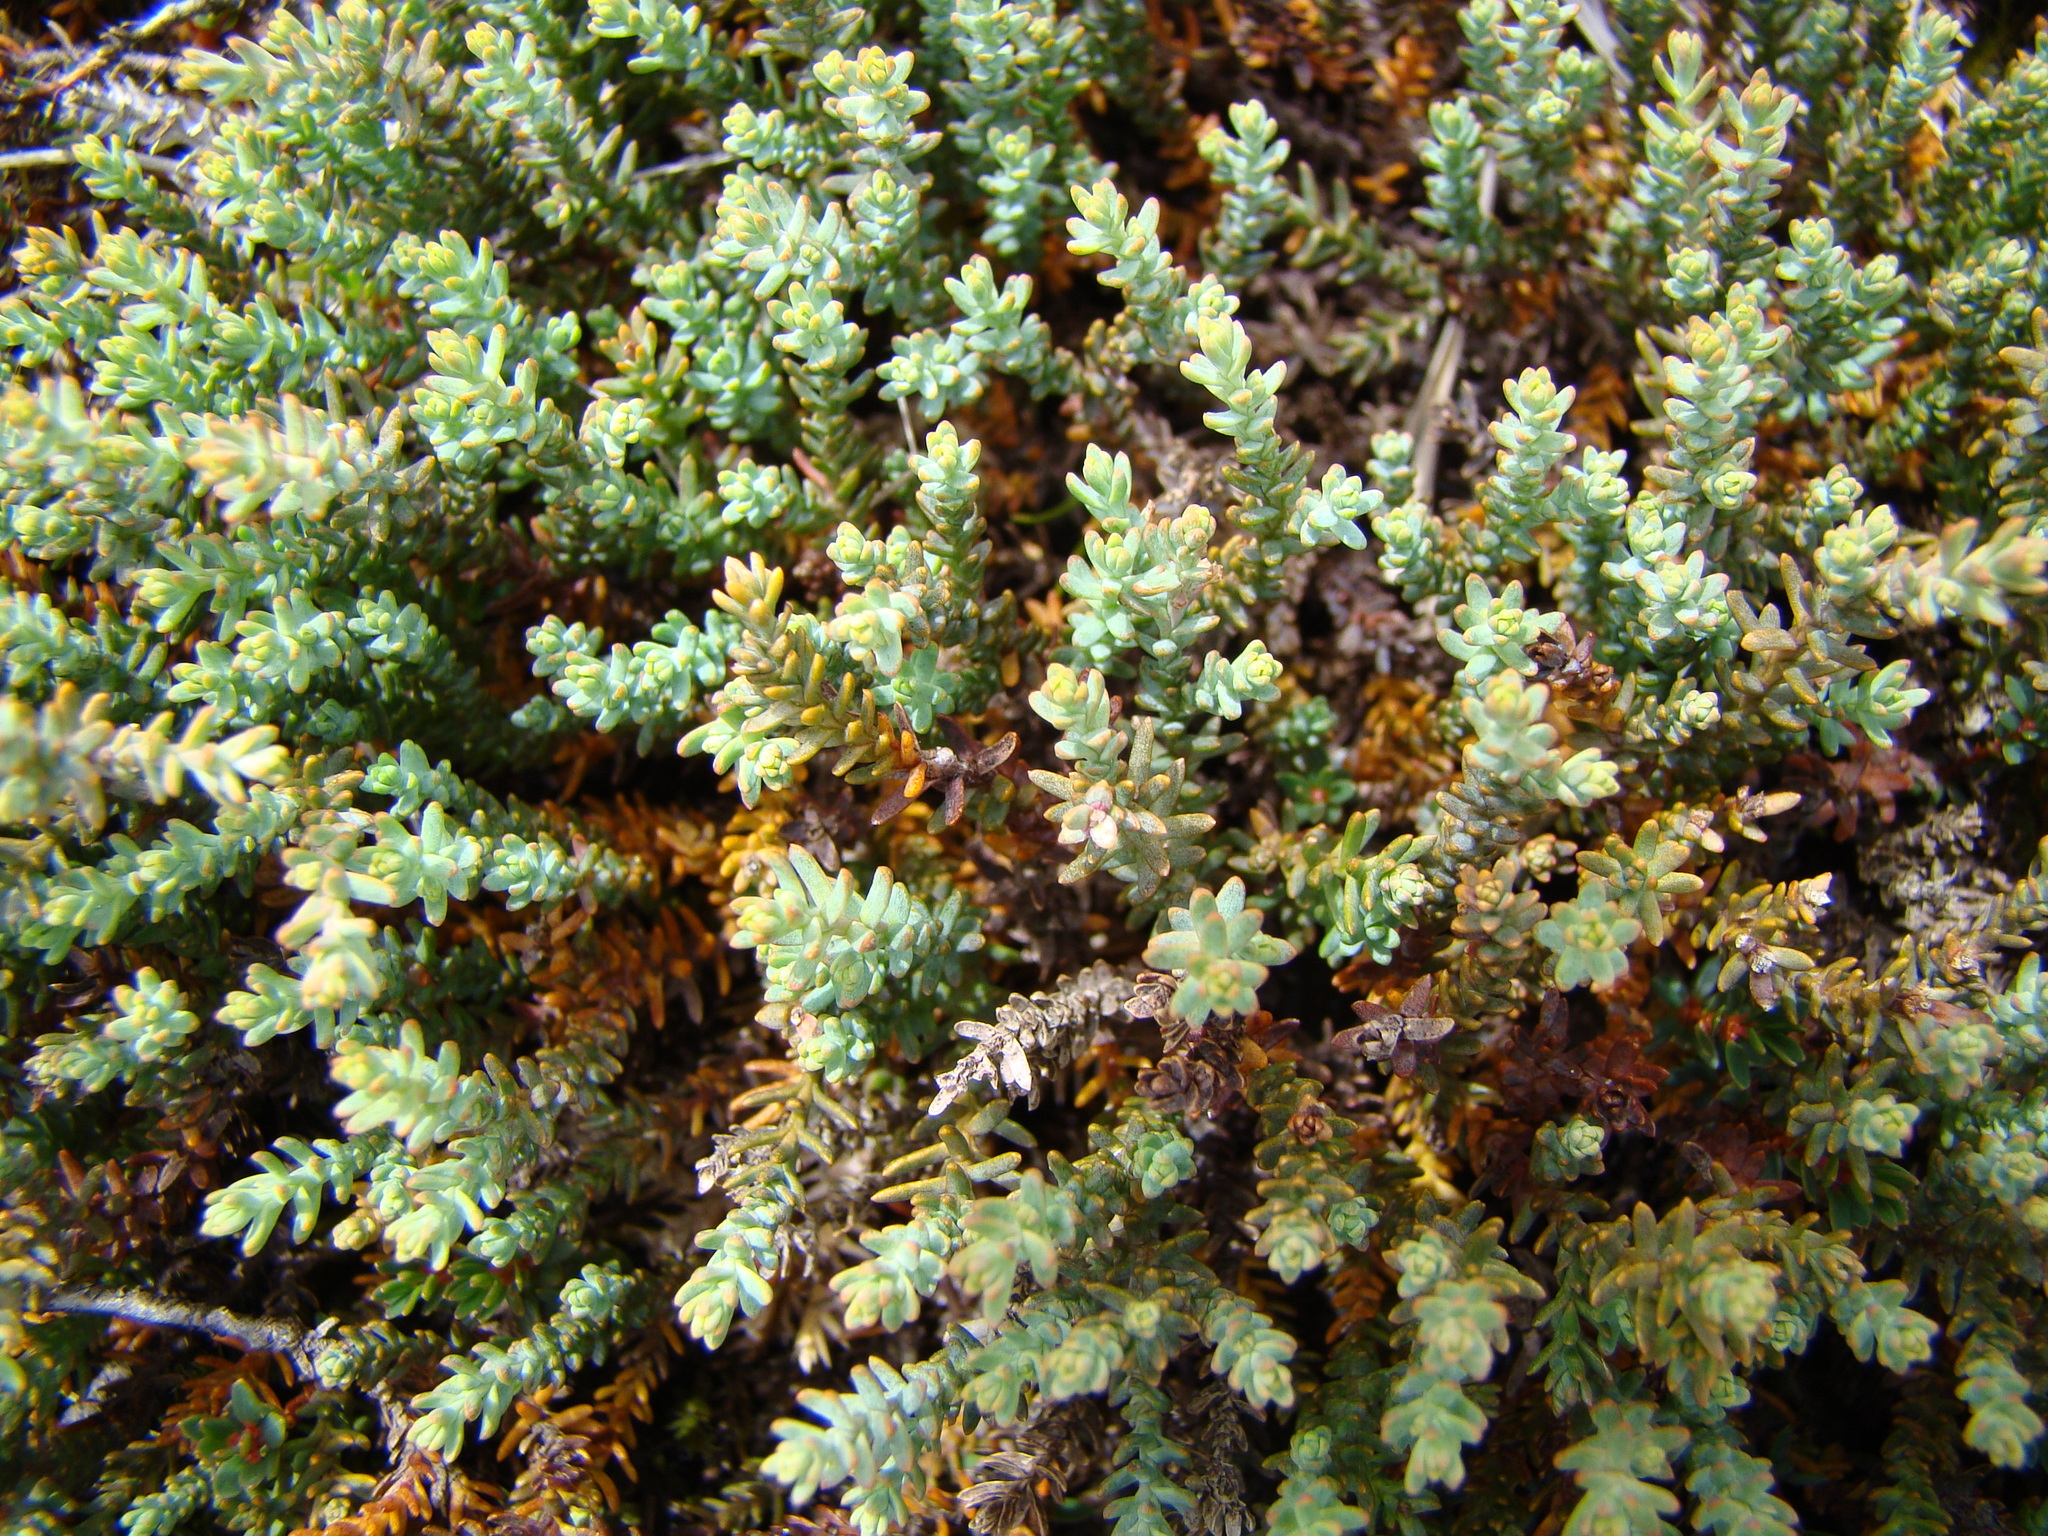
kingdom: Plantae
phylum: Tracheophyta
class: Pinopsida
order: Pinales
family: Podocarpaceae
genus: Lepidothamnus
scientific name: Lepidothamnus laxifolius
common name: Pygmy pine
